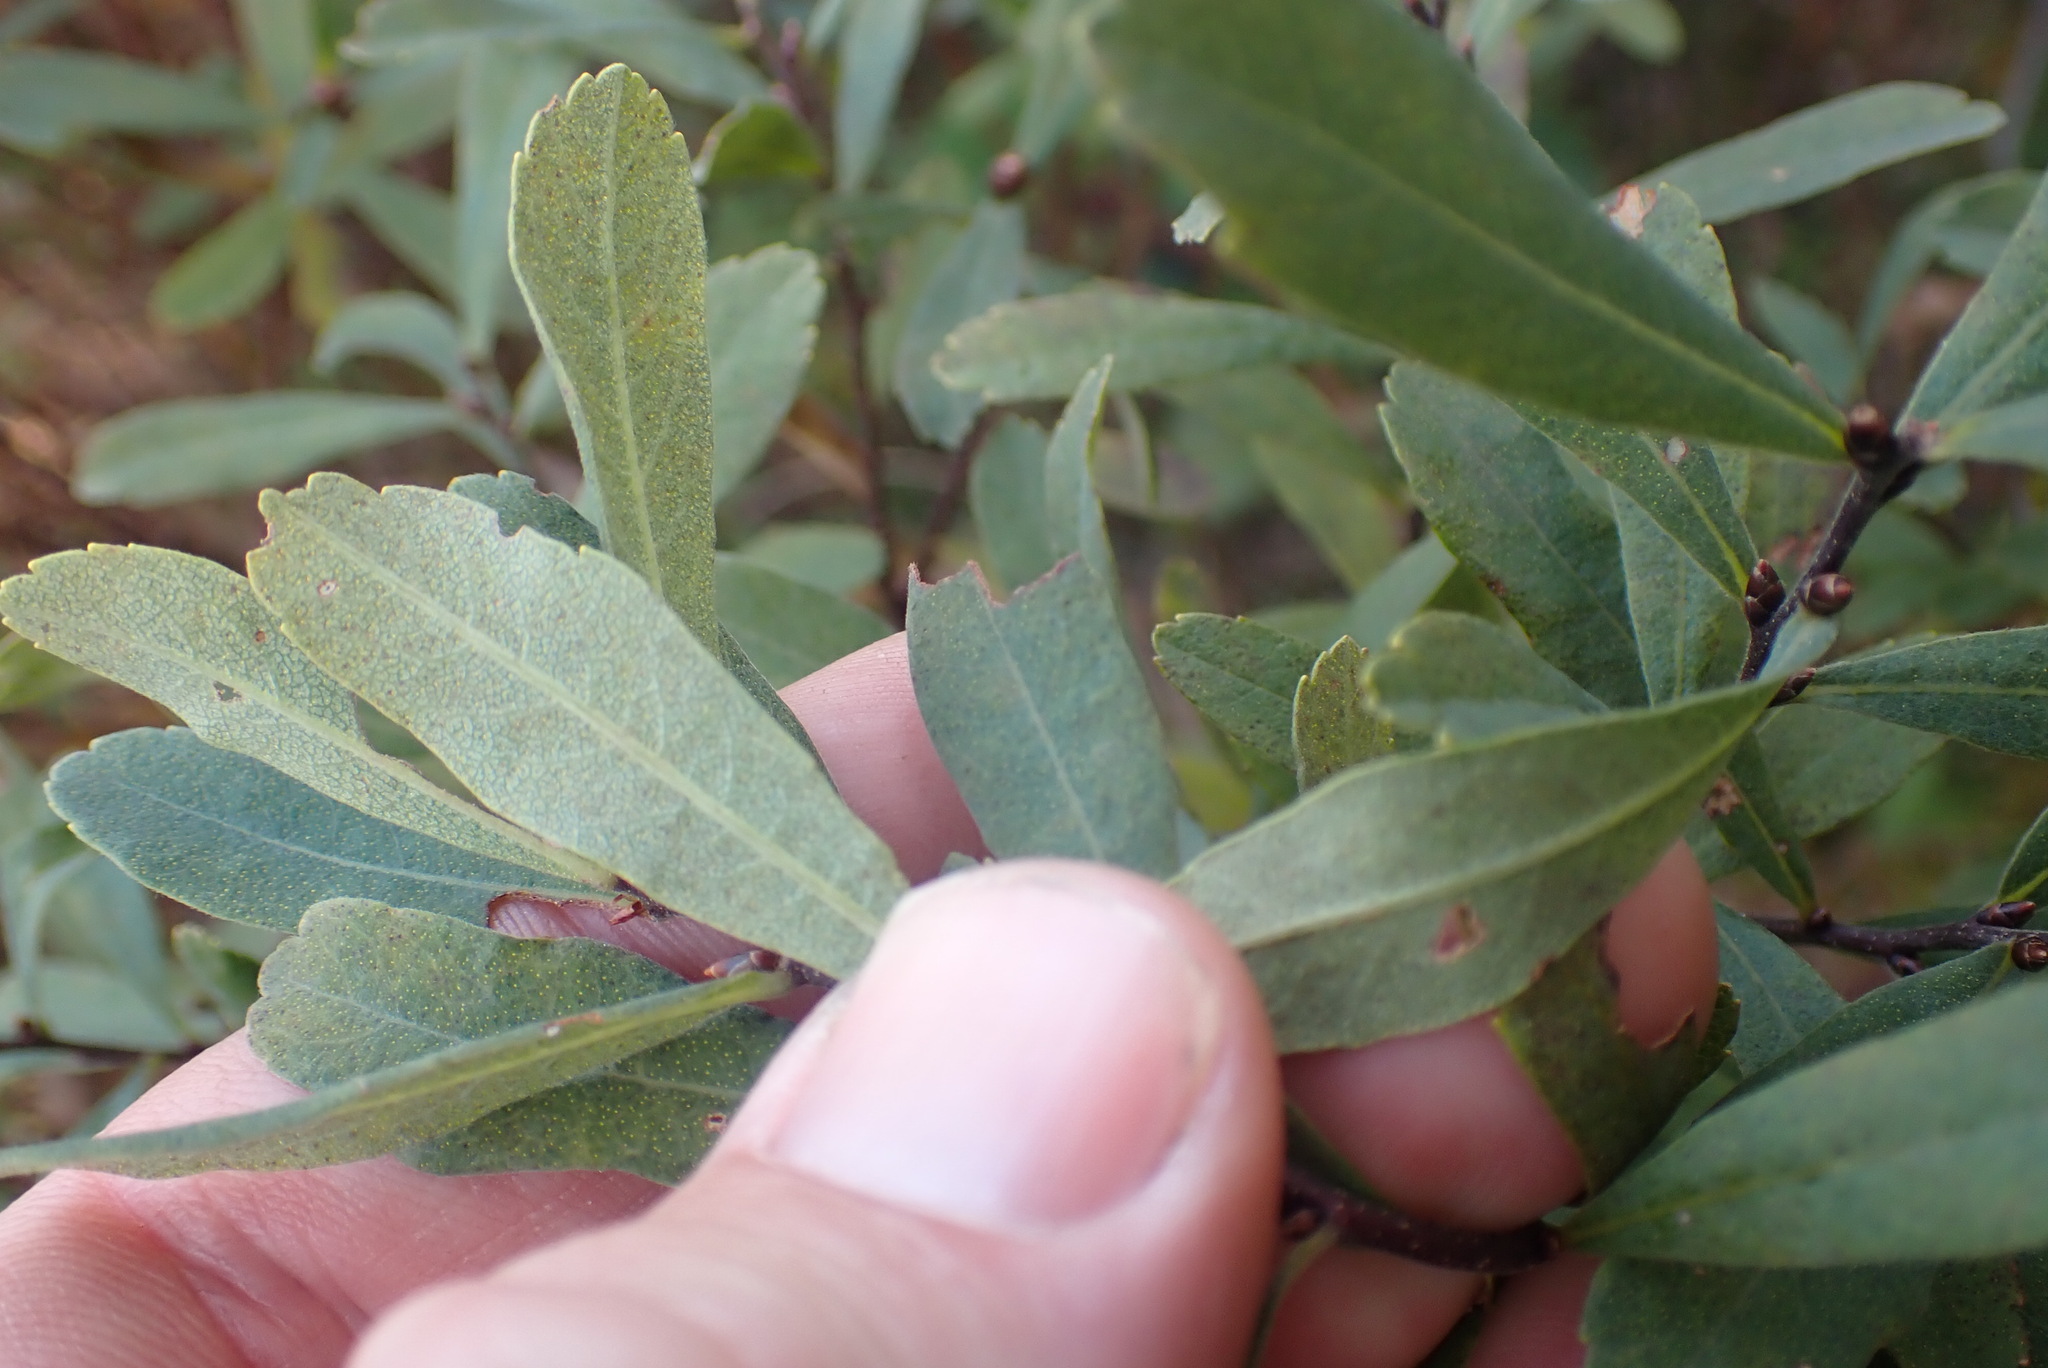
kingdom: Plantae
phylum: Tracheophyta
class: Magnoliopsida
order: Fagales
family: Myricaceae
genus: Myrica
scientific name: Myrica gale
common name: Sweet gale
